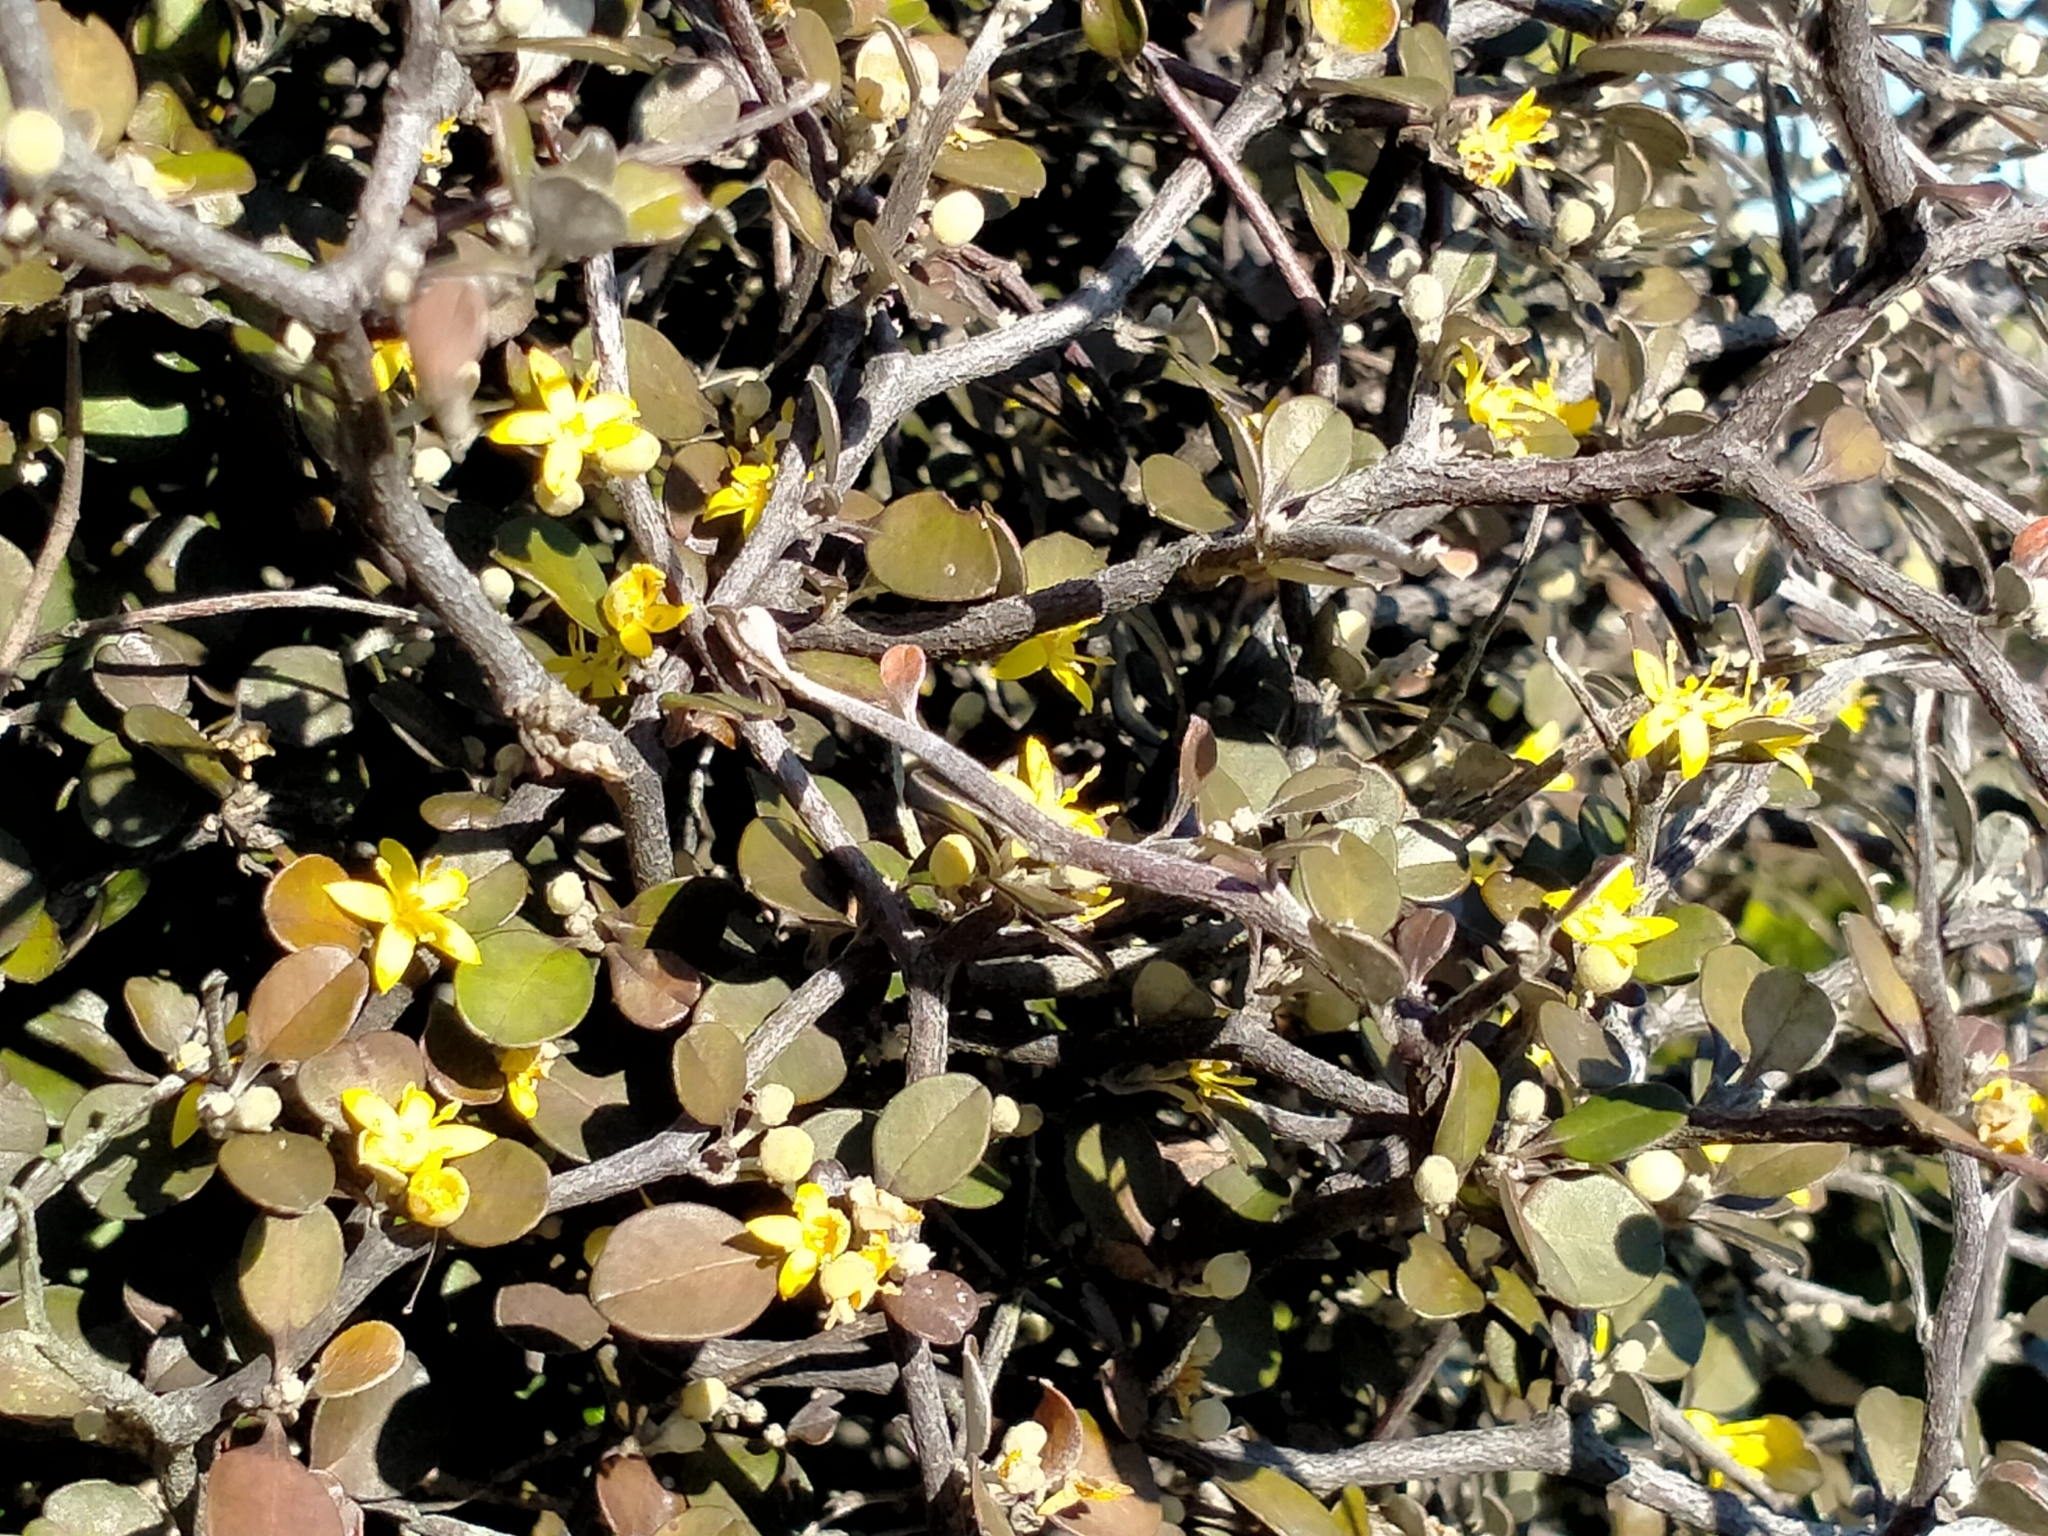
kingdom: Plantae
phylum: Tracheophyta
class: Magnoliopsida
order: Asterales
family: Argophyllaceae
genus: Corokia
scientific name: Corokia cotoneaster
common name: Wire nettingbush
